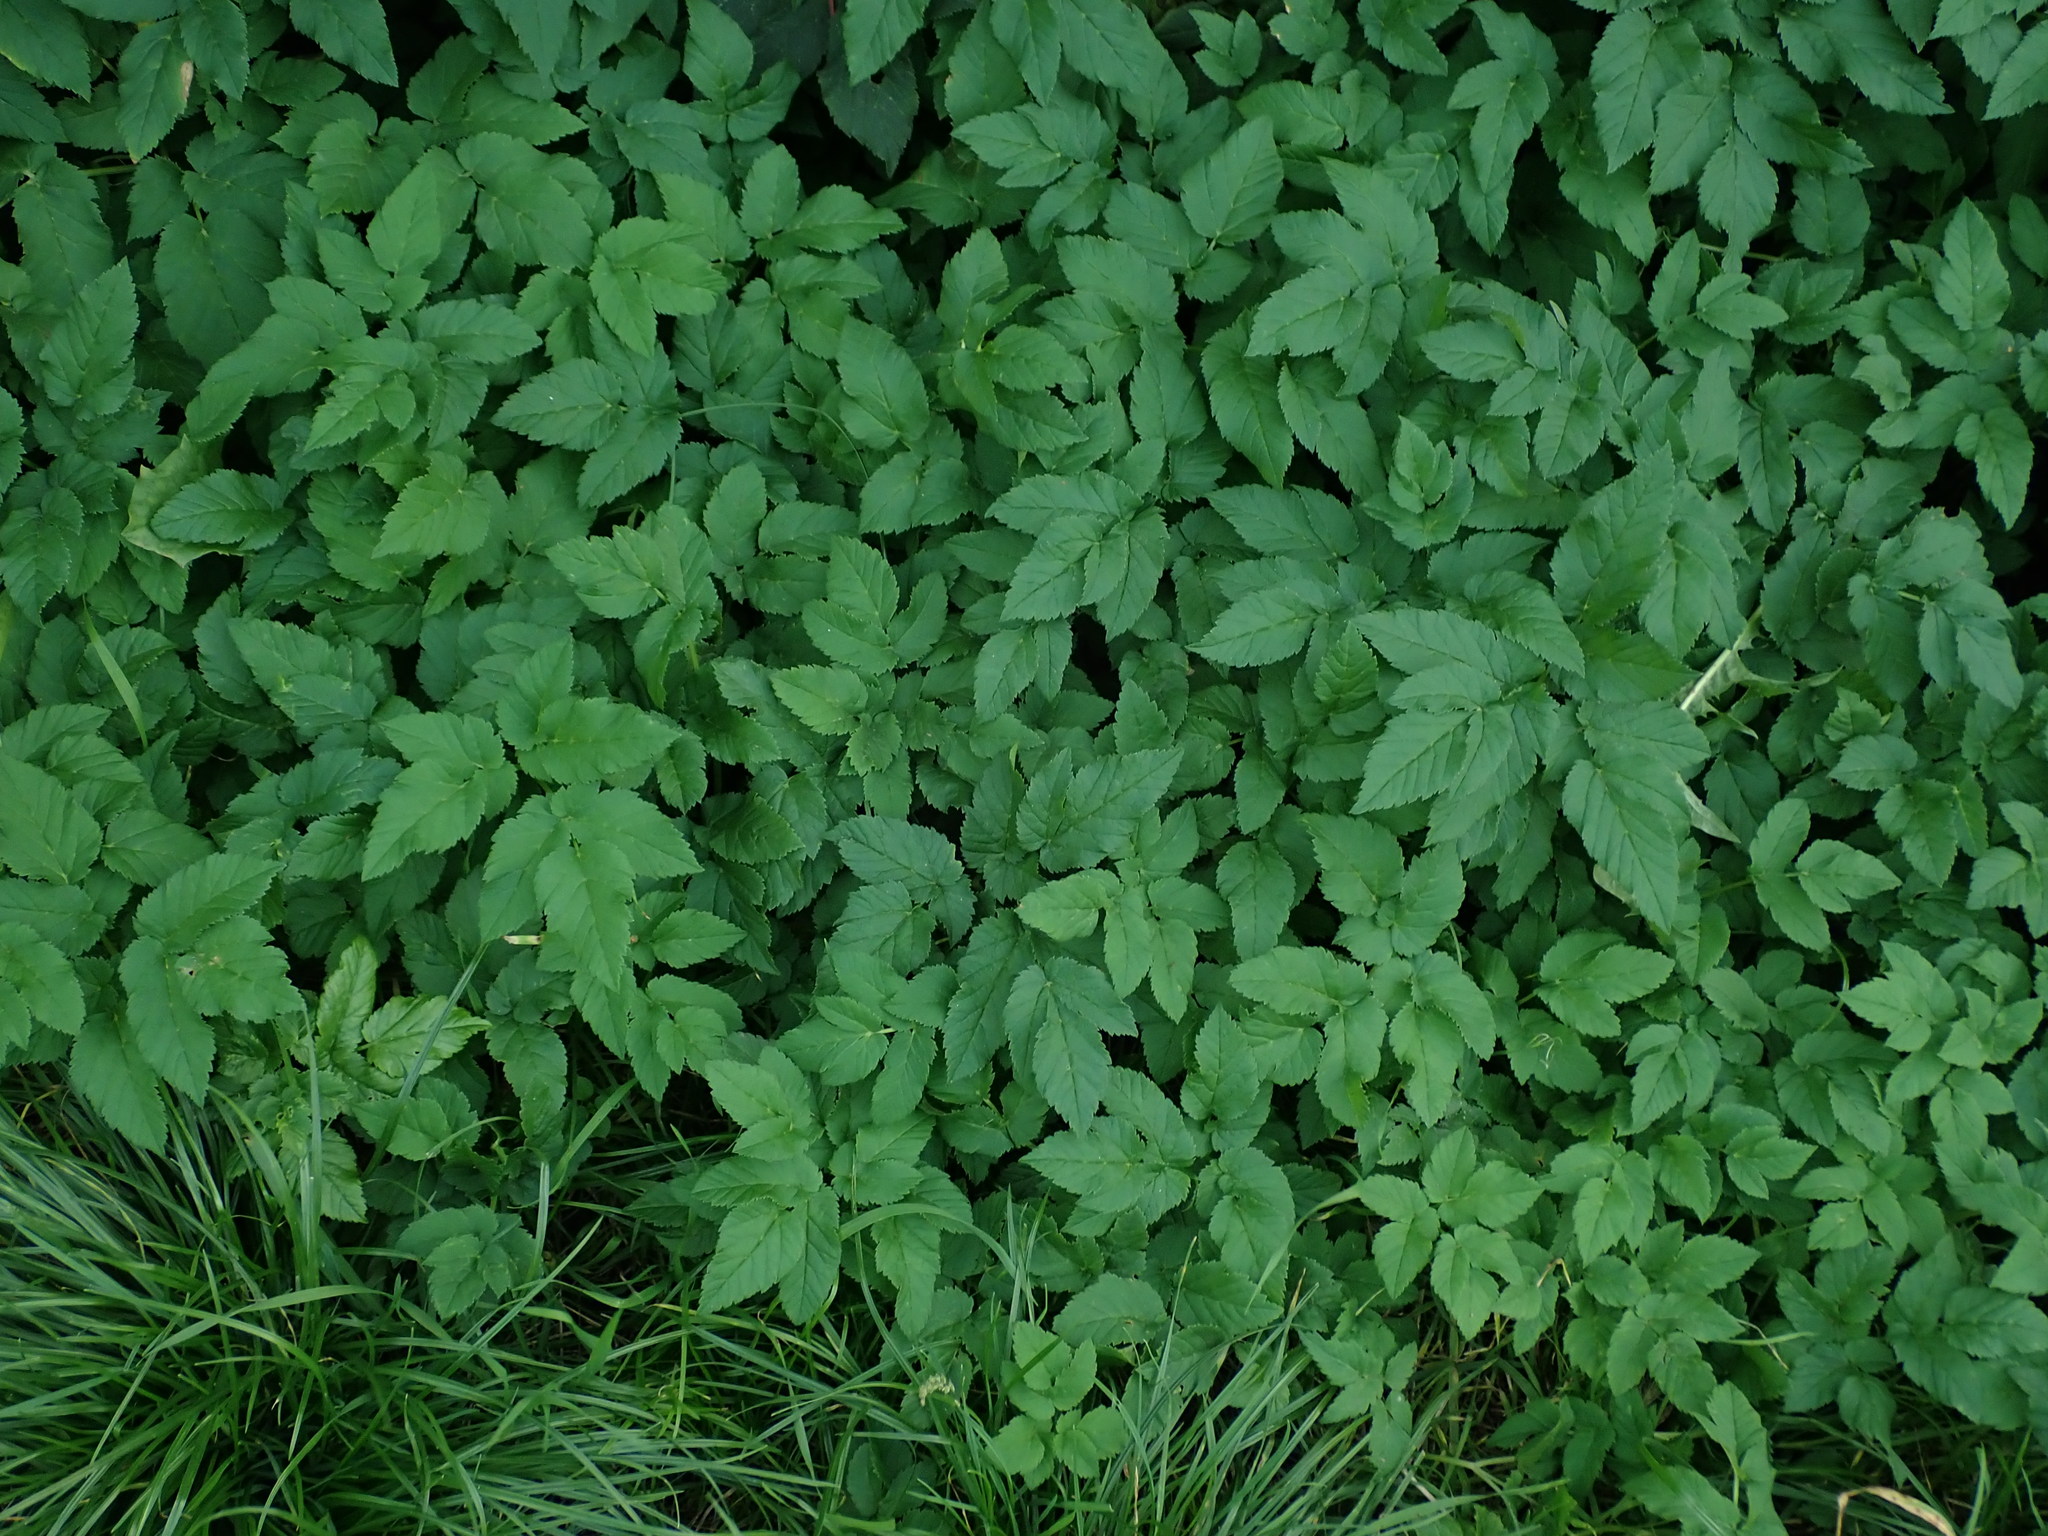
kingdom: Plantae
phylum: Tracheophyta
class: Magnoliopsida
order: Apiales
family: Apiaceae
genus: Aegopodium
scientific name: Aegopodium podagraria
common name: Ground-elder
